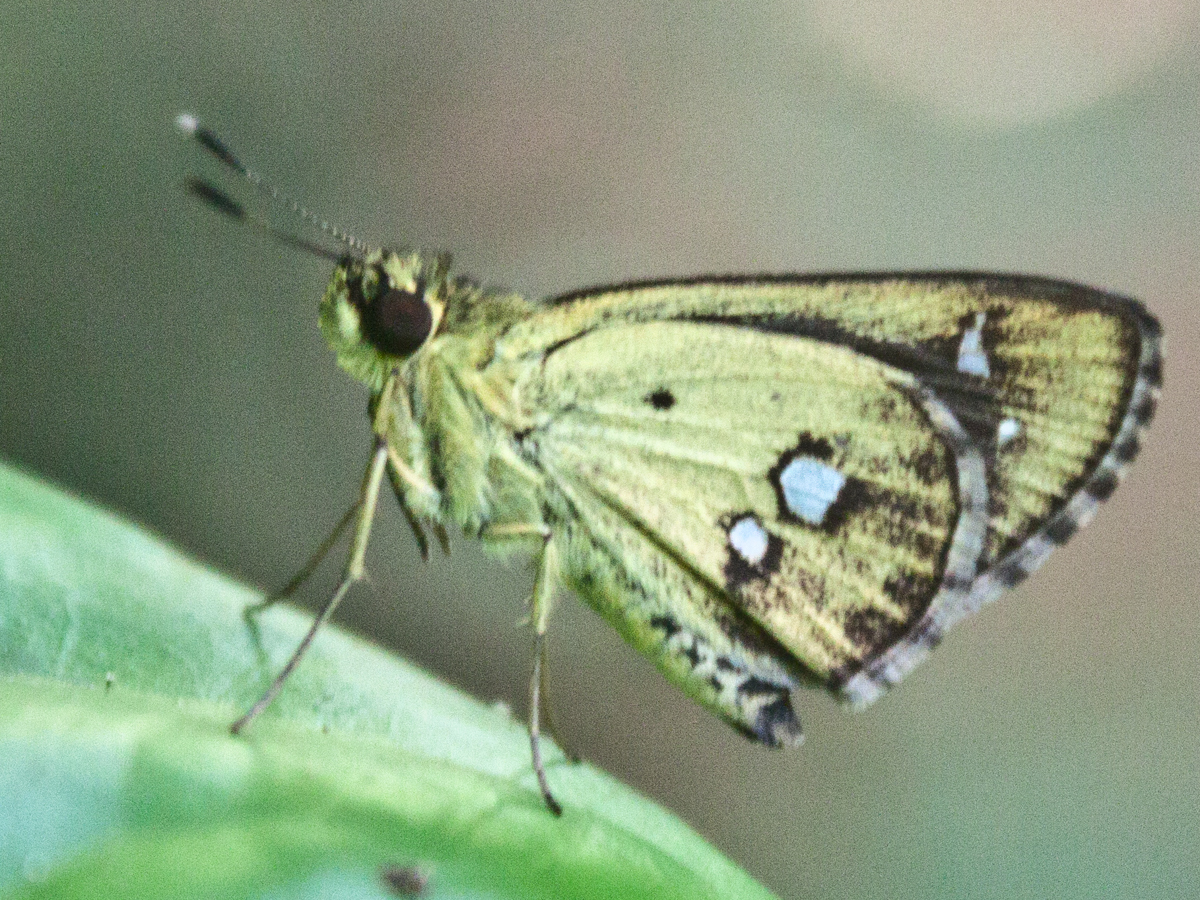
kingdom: Animalia
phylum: Arthropoda
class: Insecta
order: Lepidoptera
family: Hesperiidae
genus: Scobura
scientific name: Scobura isota
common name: Swinhoe's forest bob
